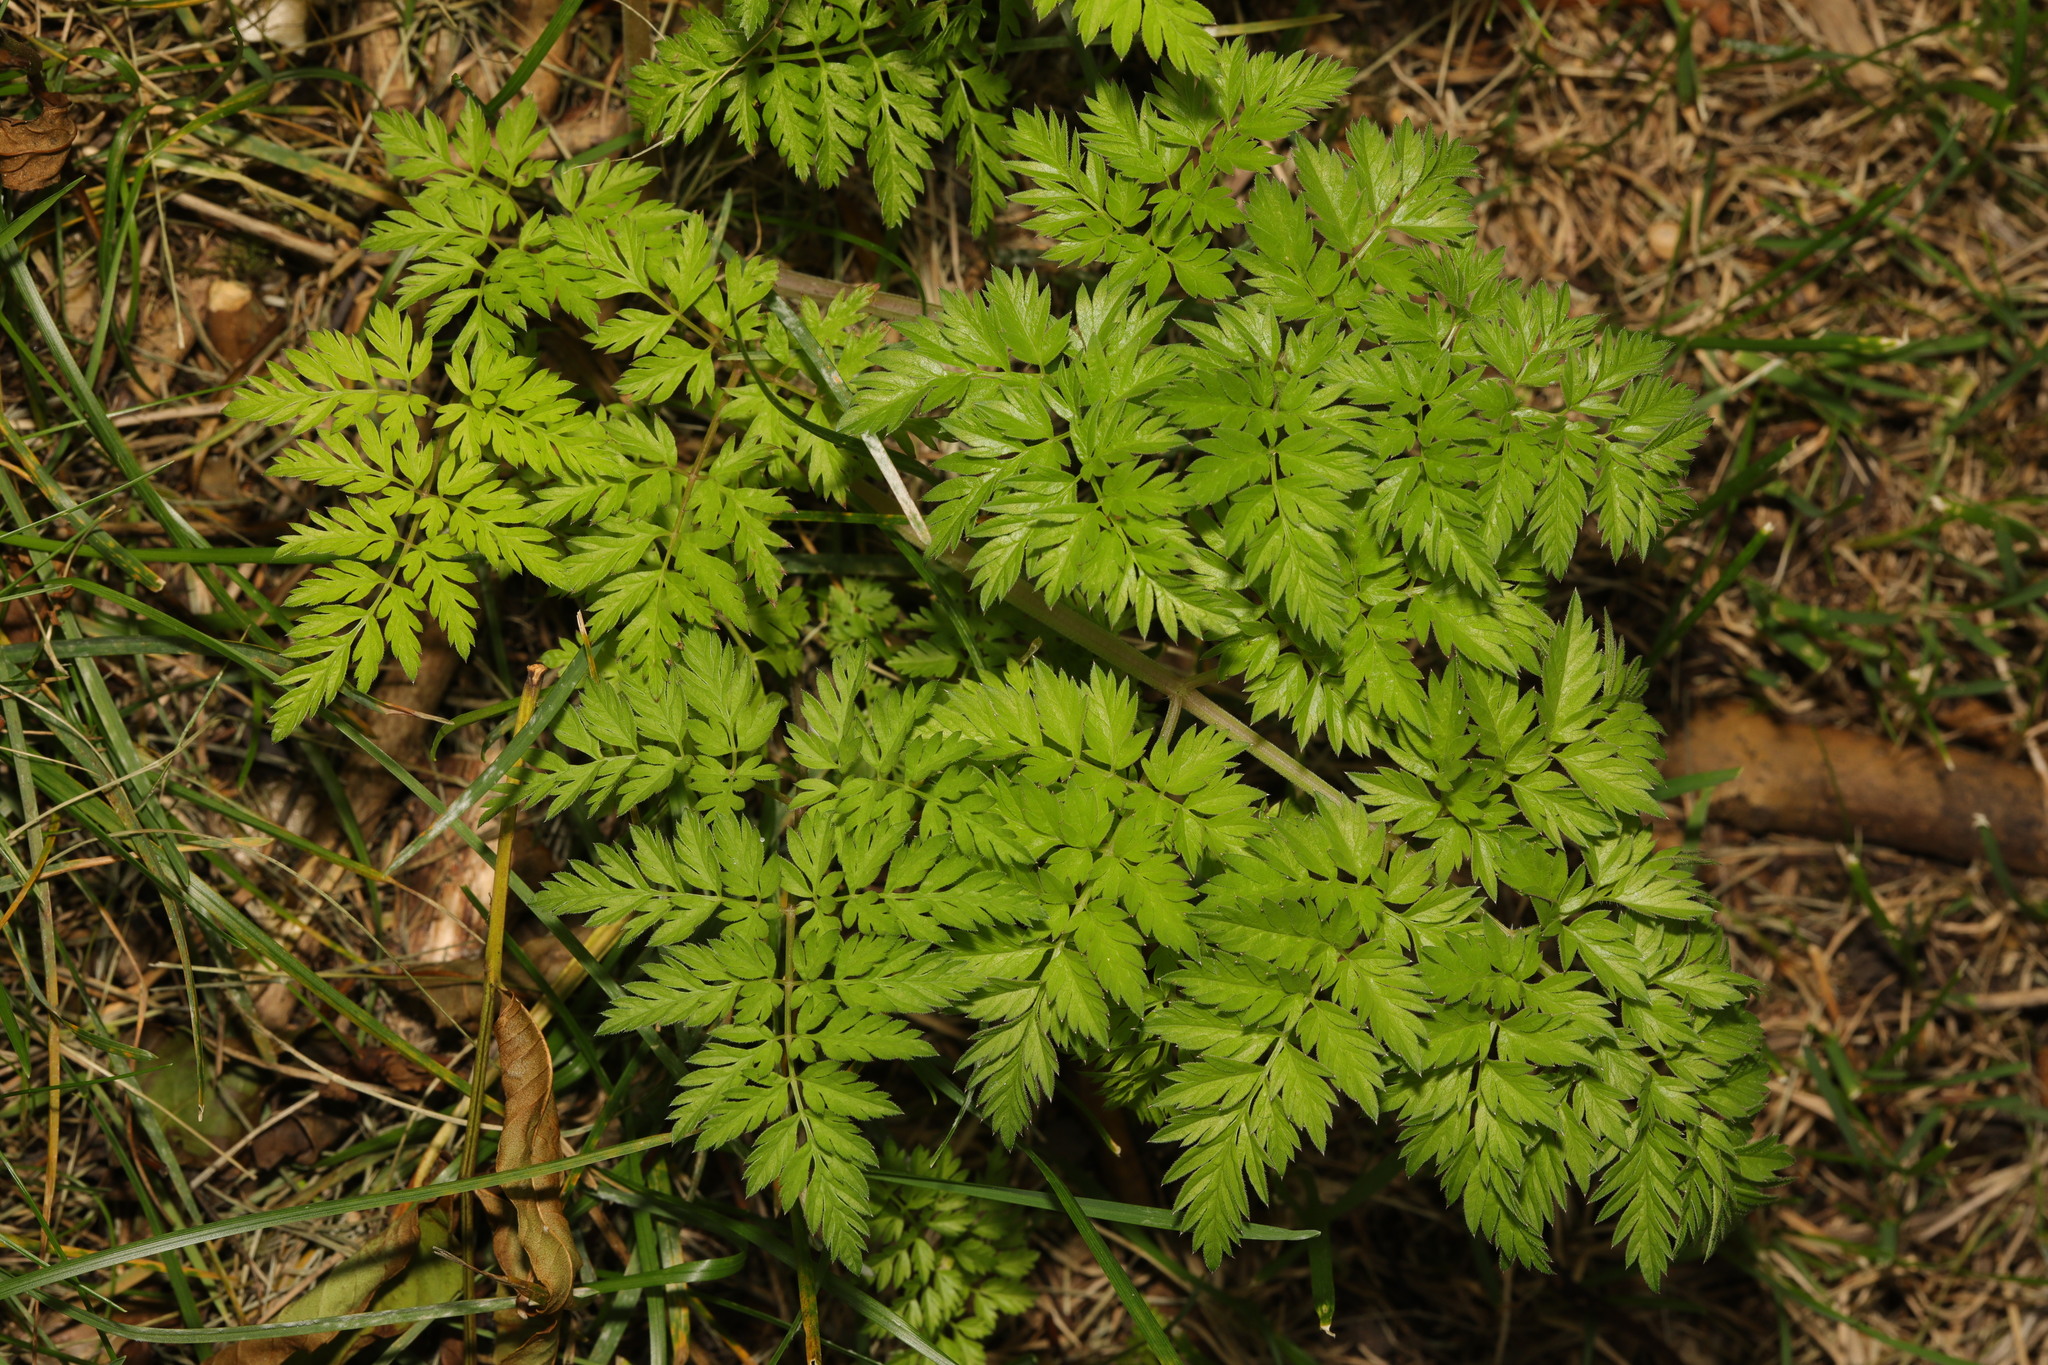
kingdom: Plantae
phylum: Tracheophyta
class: Magnoliopsida
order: Apiales
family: Apiaceae
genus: Anthriscus
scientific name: Anthriscus sylvestris
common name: Cow parsley
